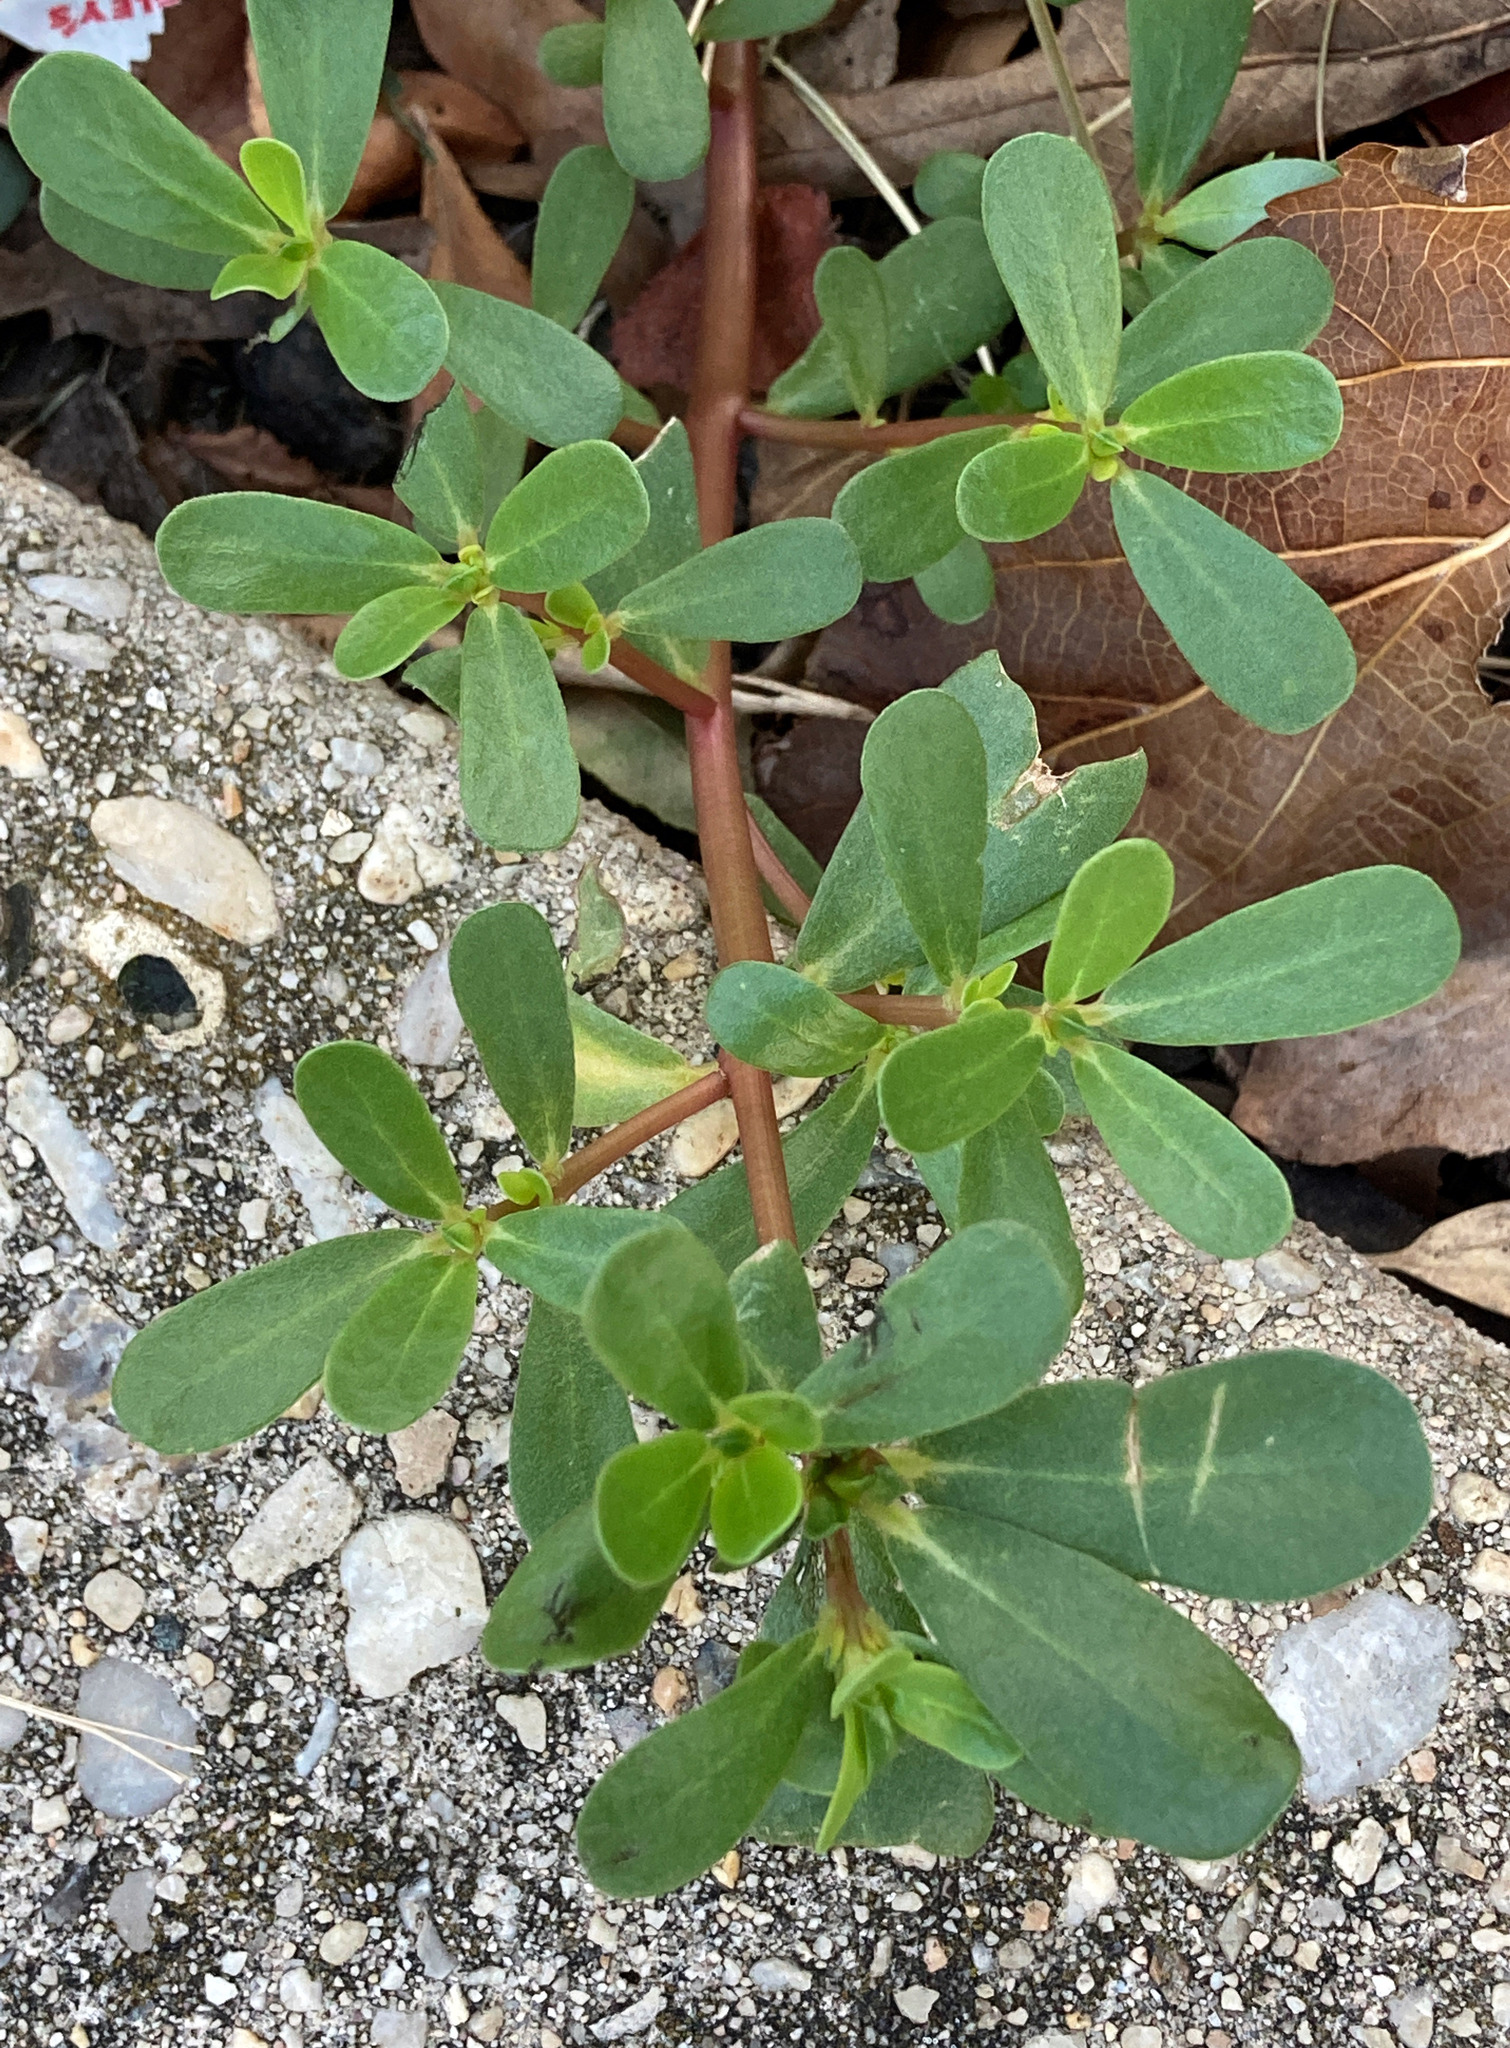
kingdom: Plantae
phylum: Tracheophyta
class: Magnoliopsida
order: Caryophyllales
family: Portulacaceae
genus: Portulaca
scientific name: Portulaca oleracea
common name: Common purslane
